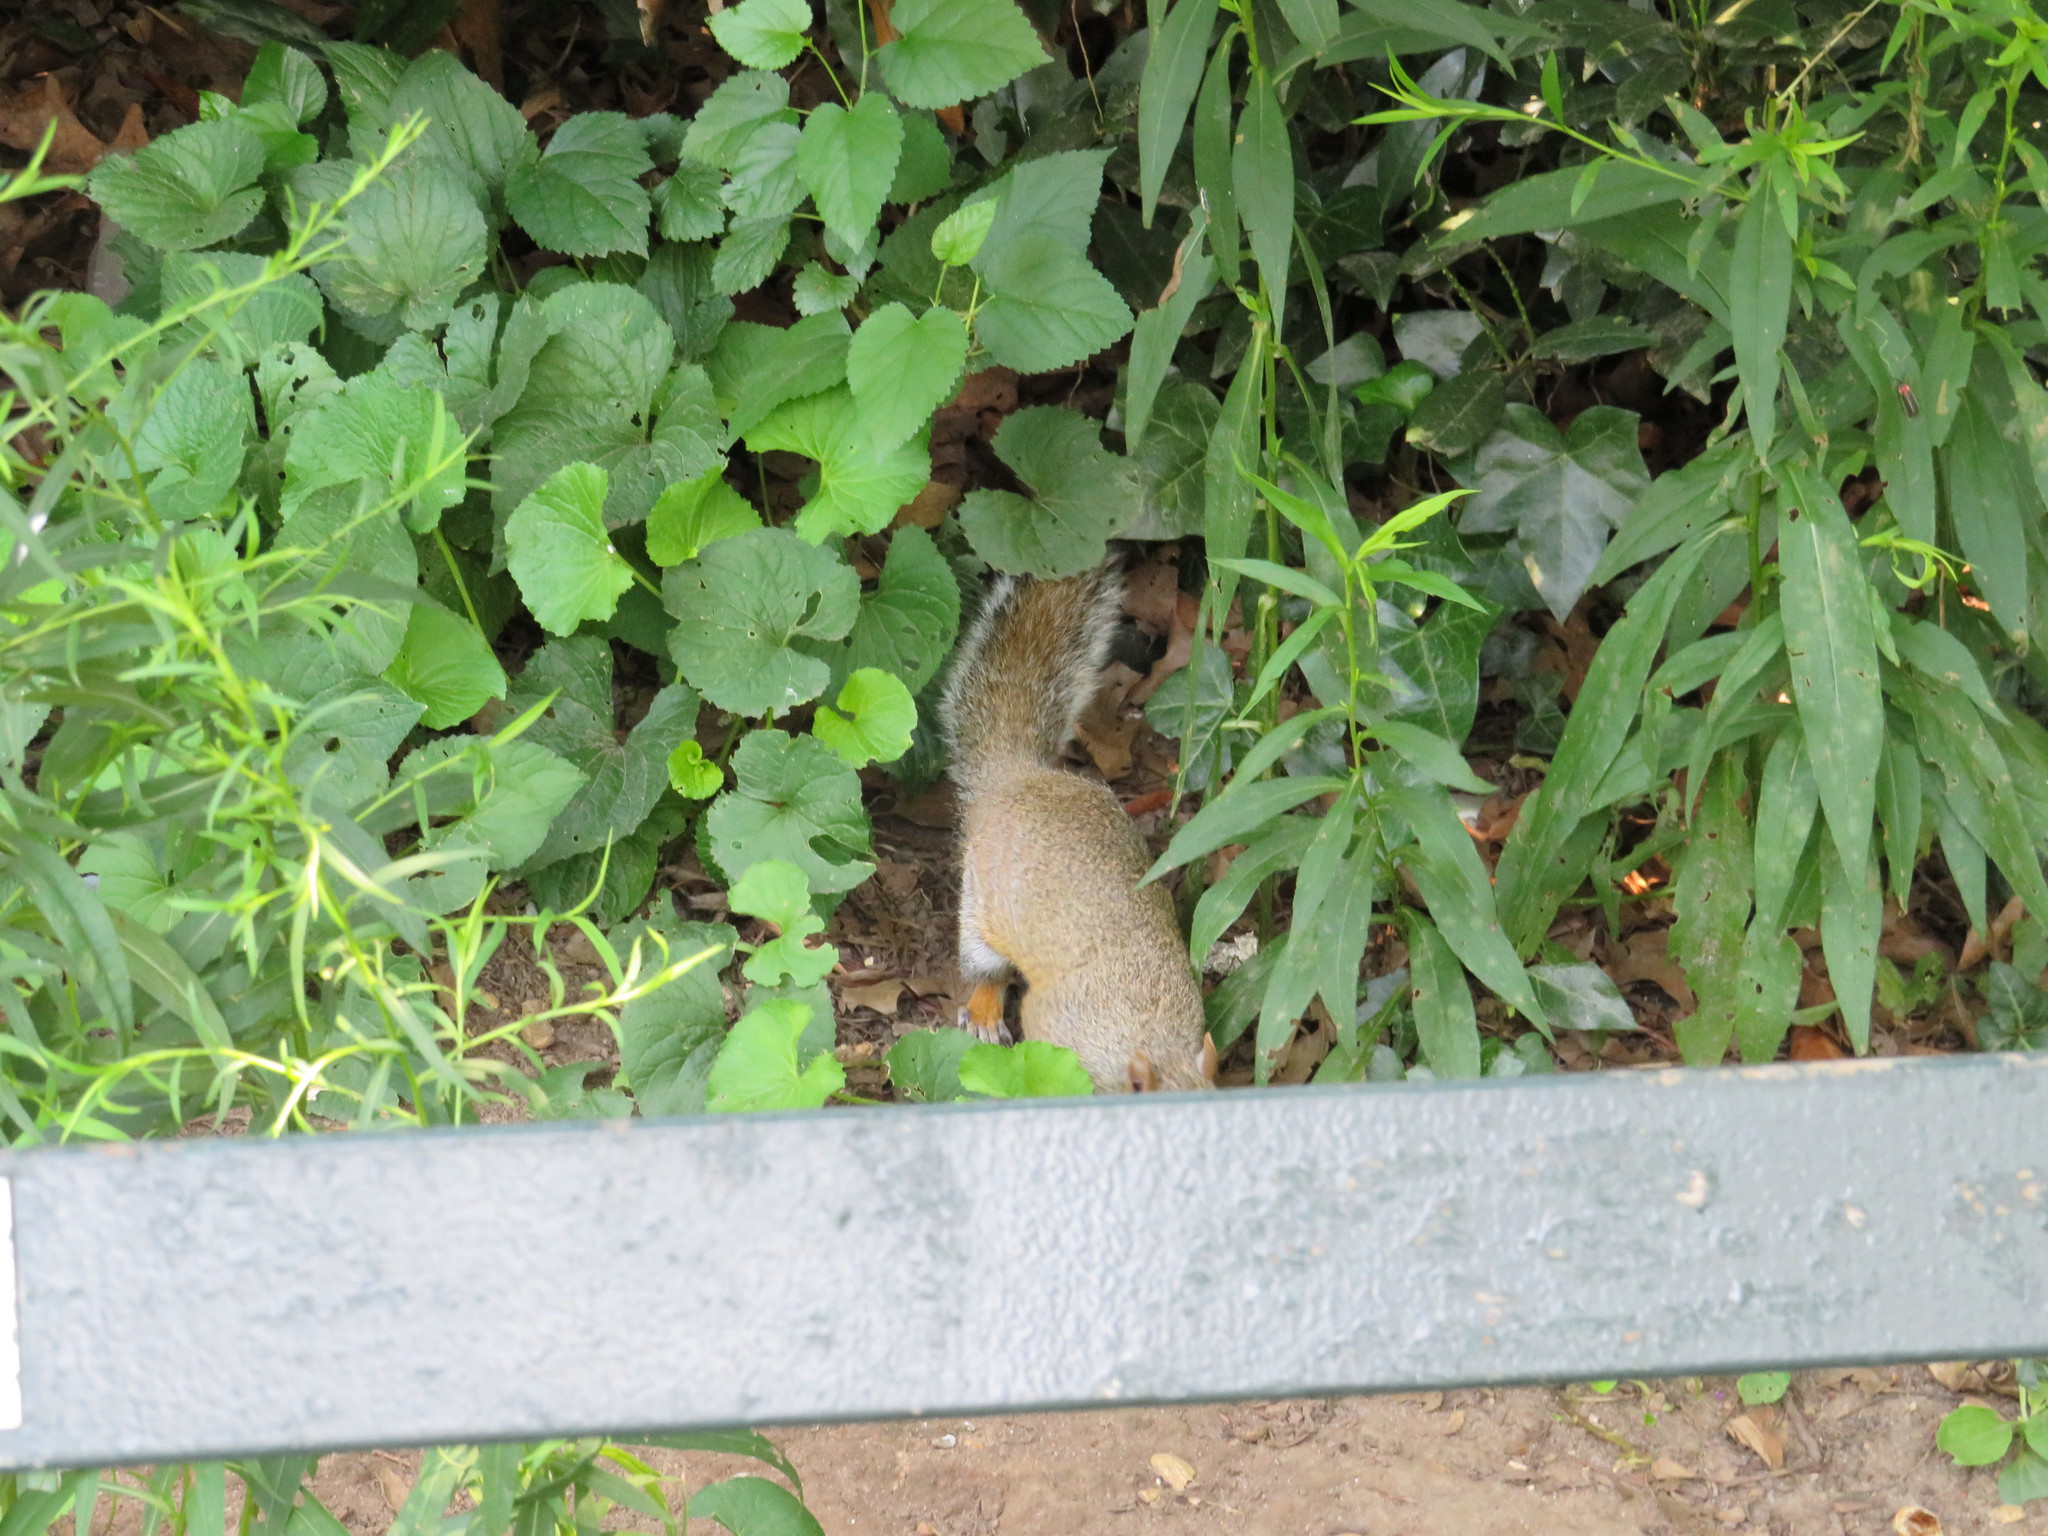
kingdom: Animalia
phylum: Chordata
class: Mammalia
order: Rodentia
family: Sciuridae
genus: Sciurus
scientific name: Sciurus carolinensis
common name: Eastern gray squirrel
